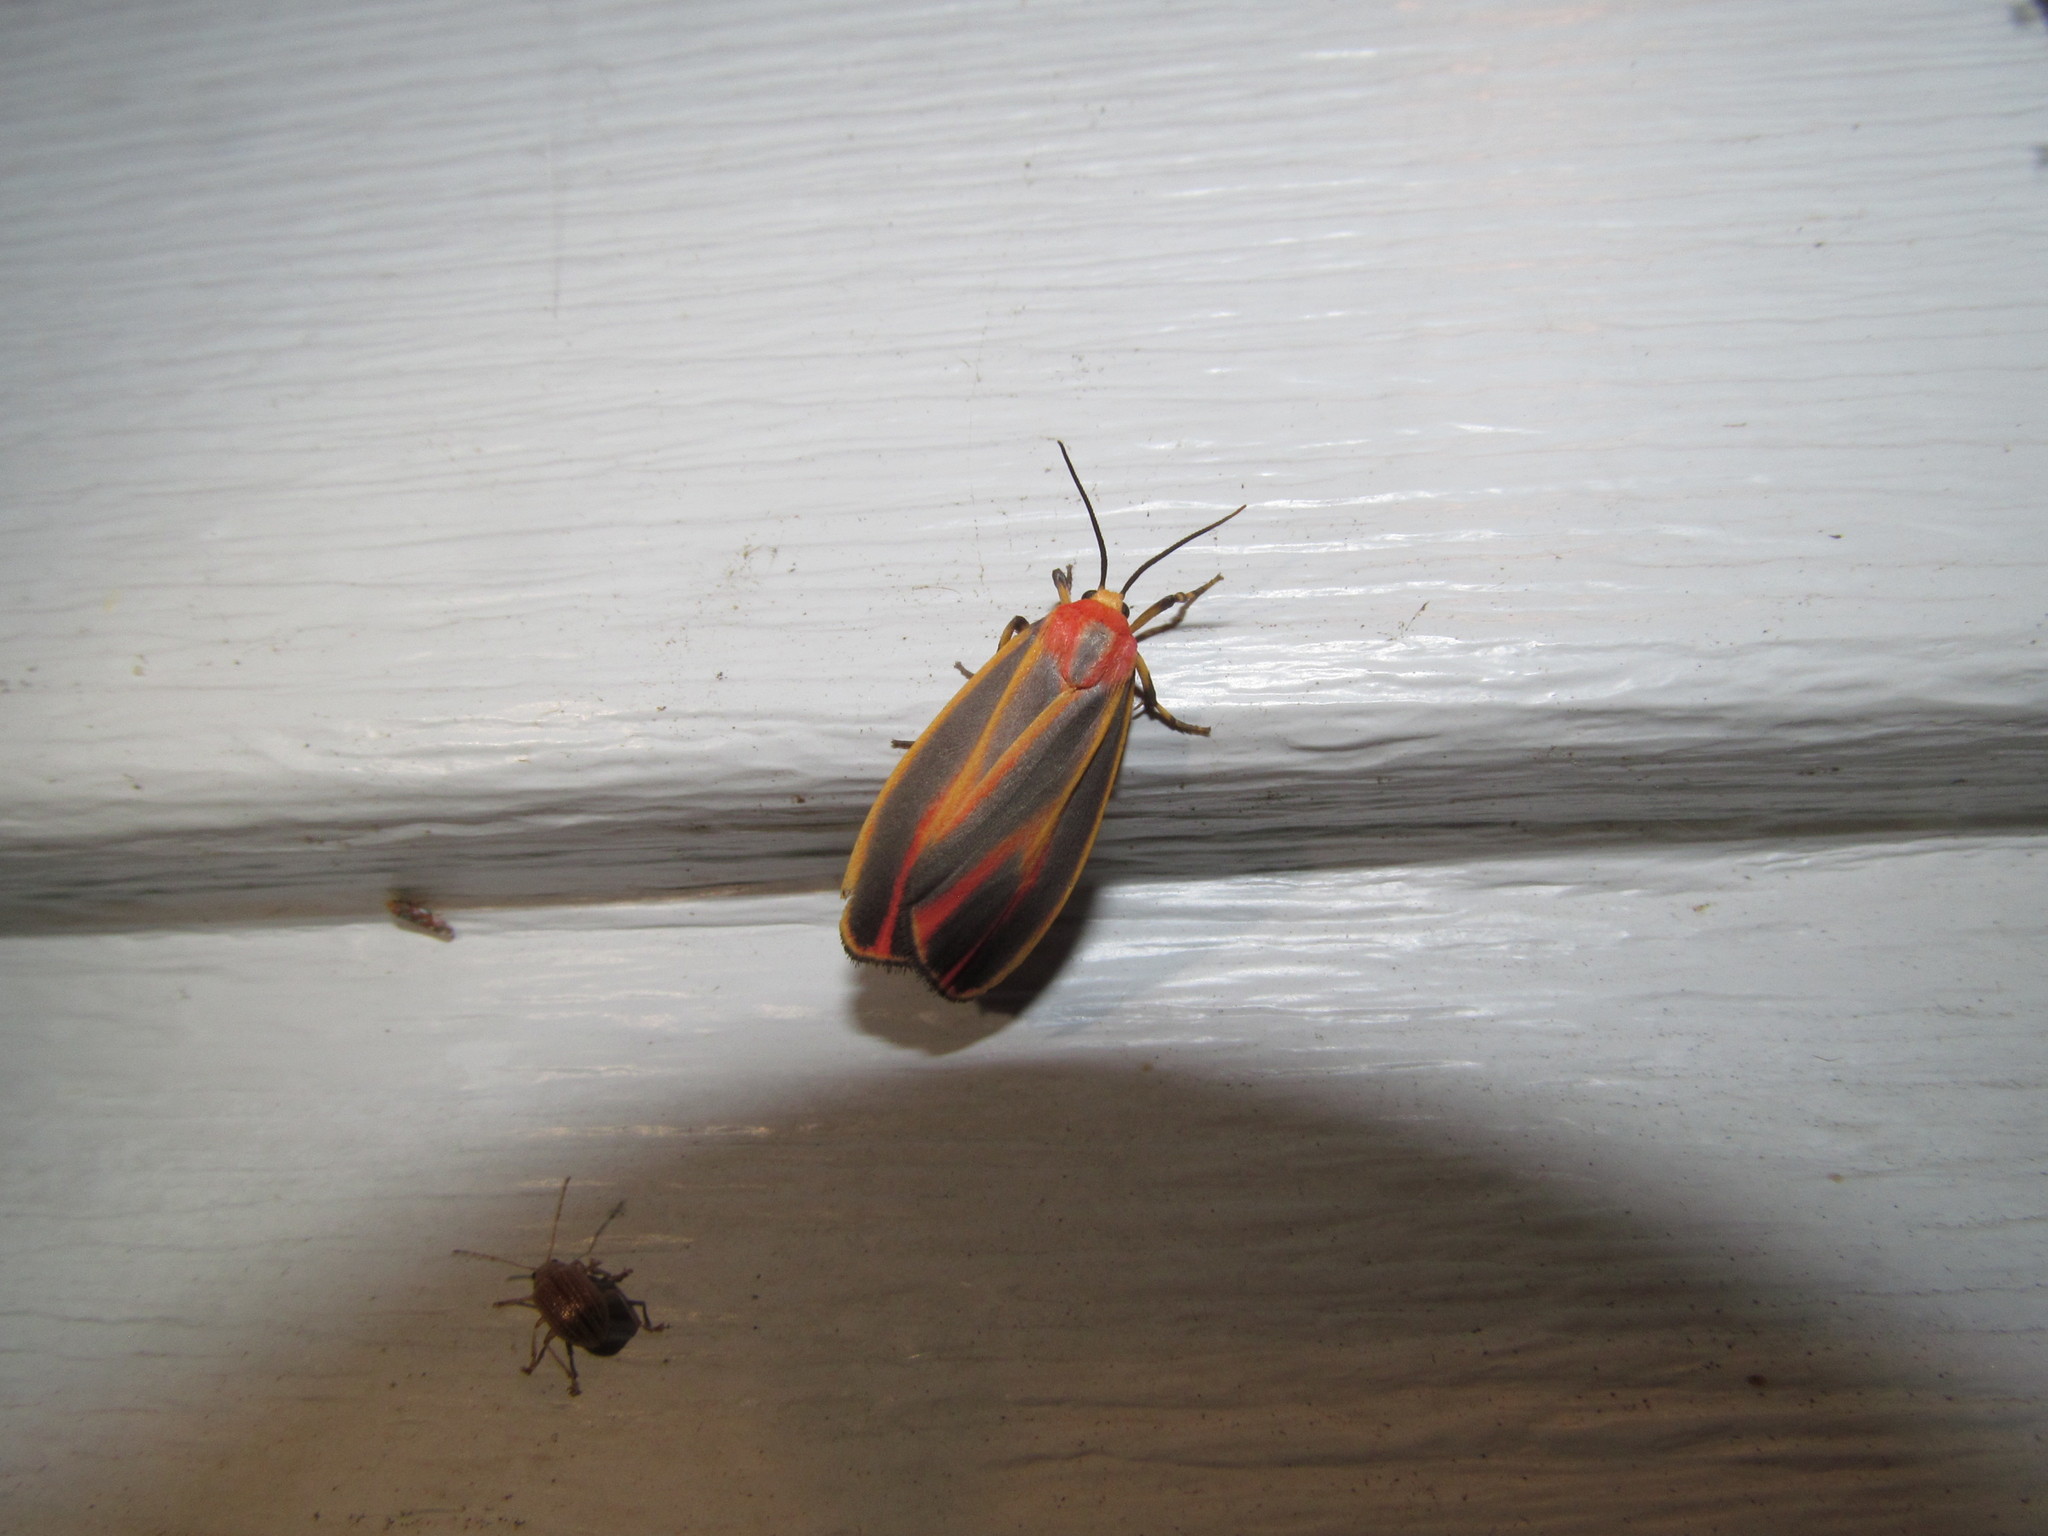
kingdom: Animalia
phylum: Arthropoda
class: Insecta
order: Lepidoptera
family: Erebidae
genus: Hypoprepia
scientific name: Hypoprepia fucosa
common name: Painted lichen moth
